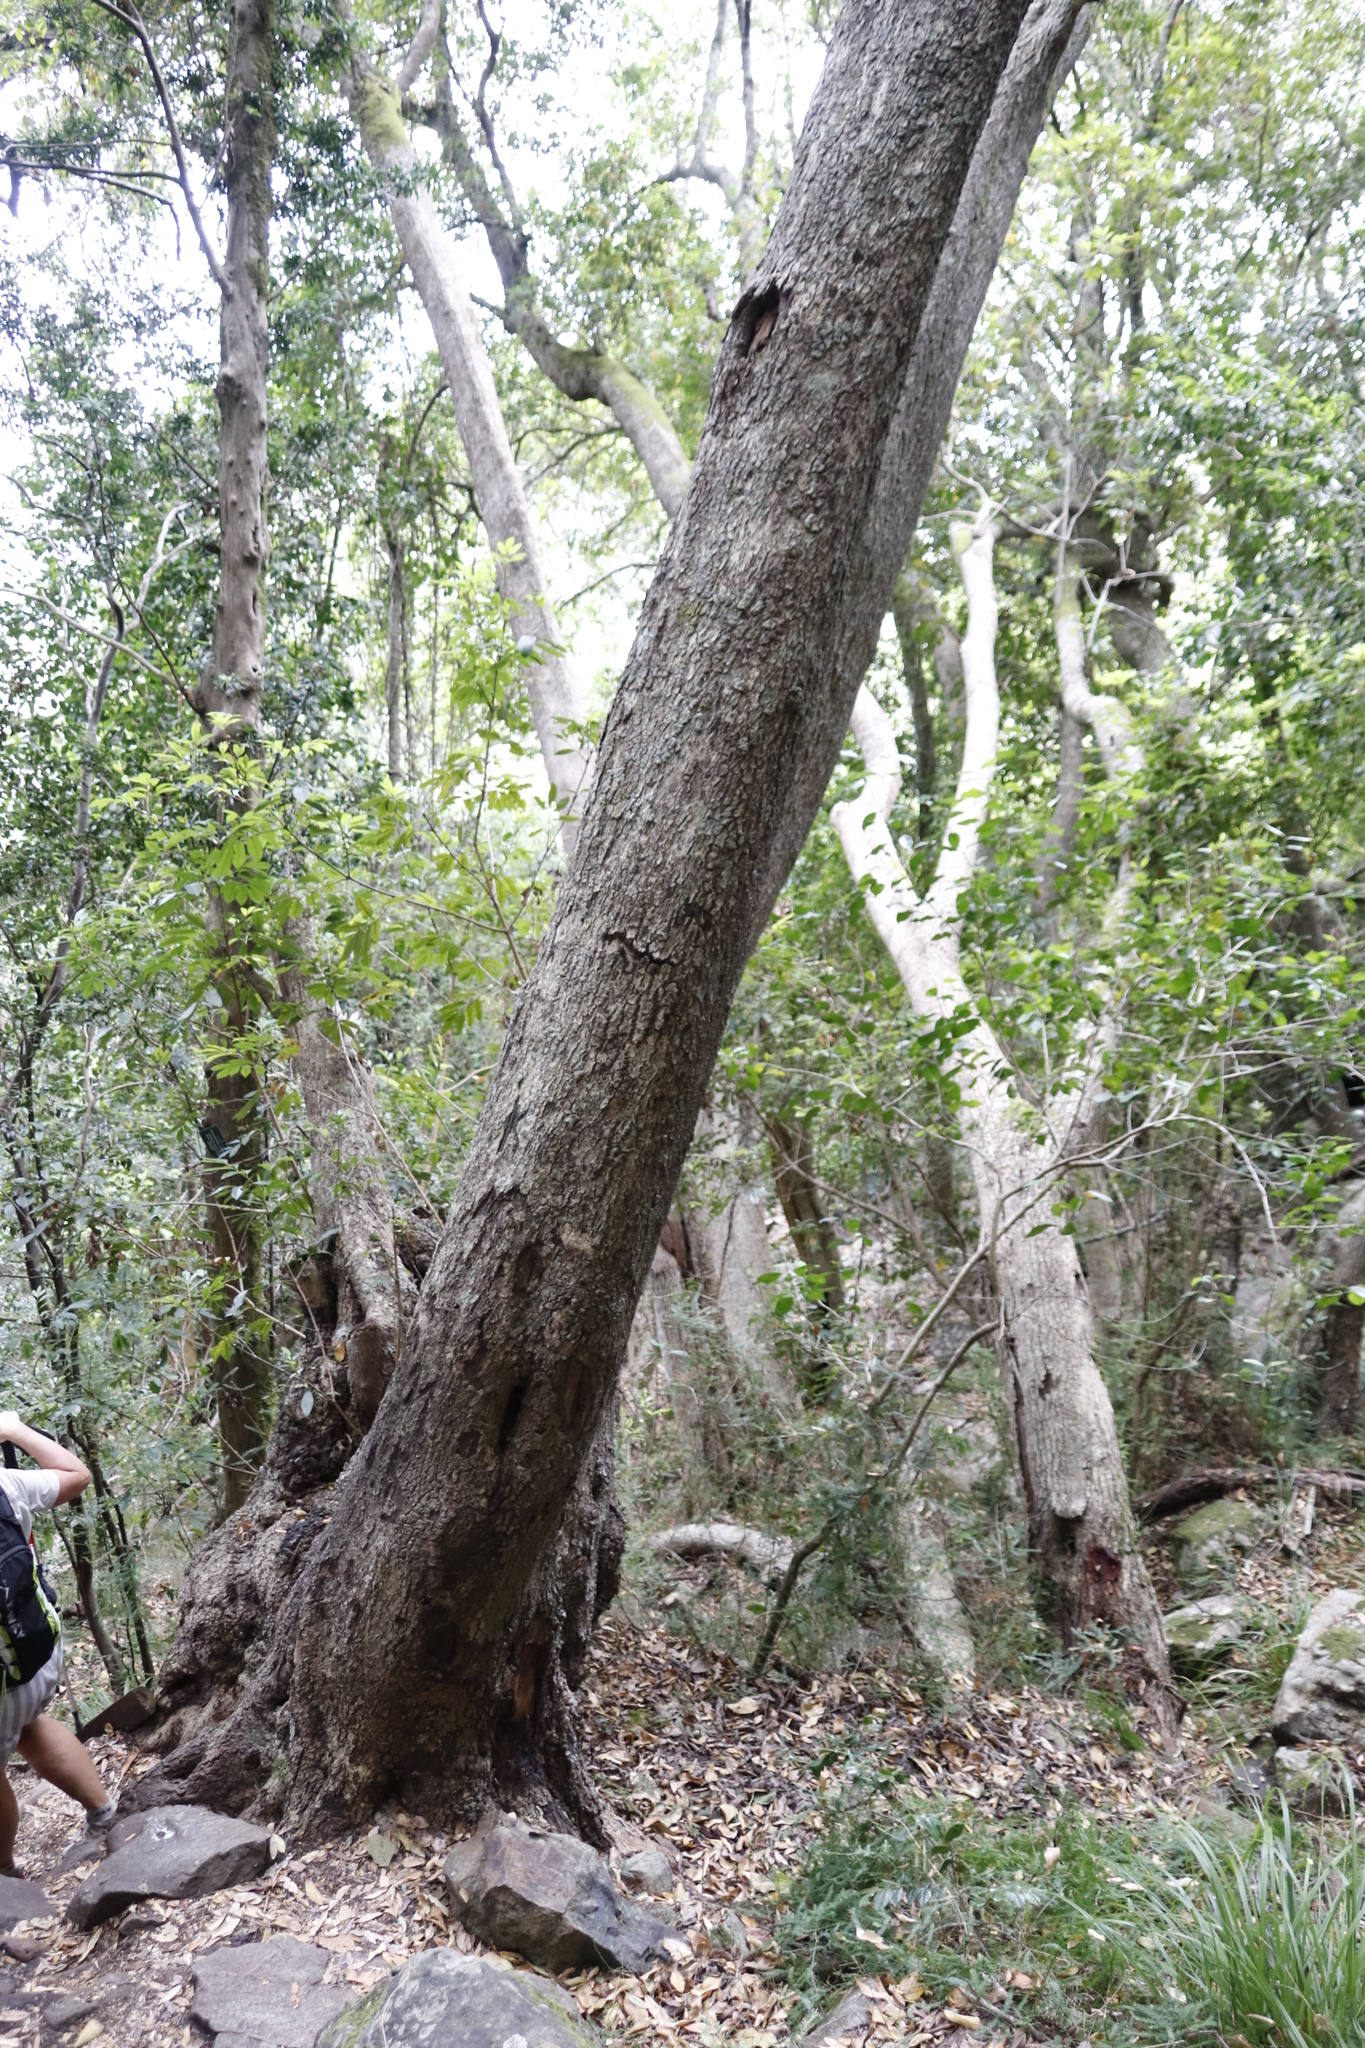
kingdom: Plantae
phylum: Tracheophyta
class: Magnoliopsida
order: Oxalidales
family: Cunoniaceae
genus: Cunonia
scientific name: Cunonia capensis
